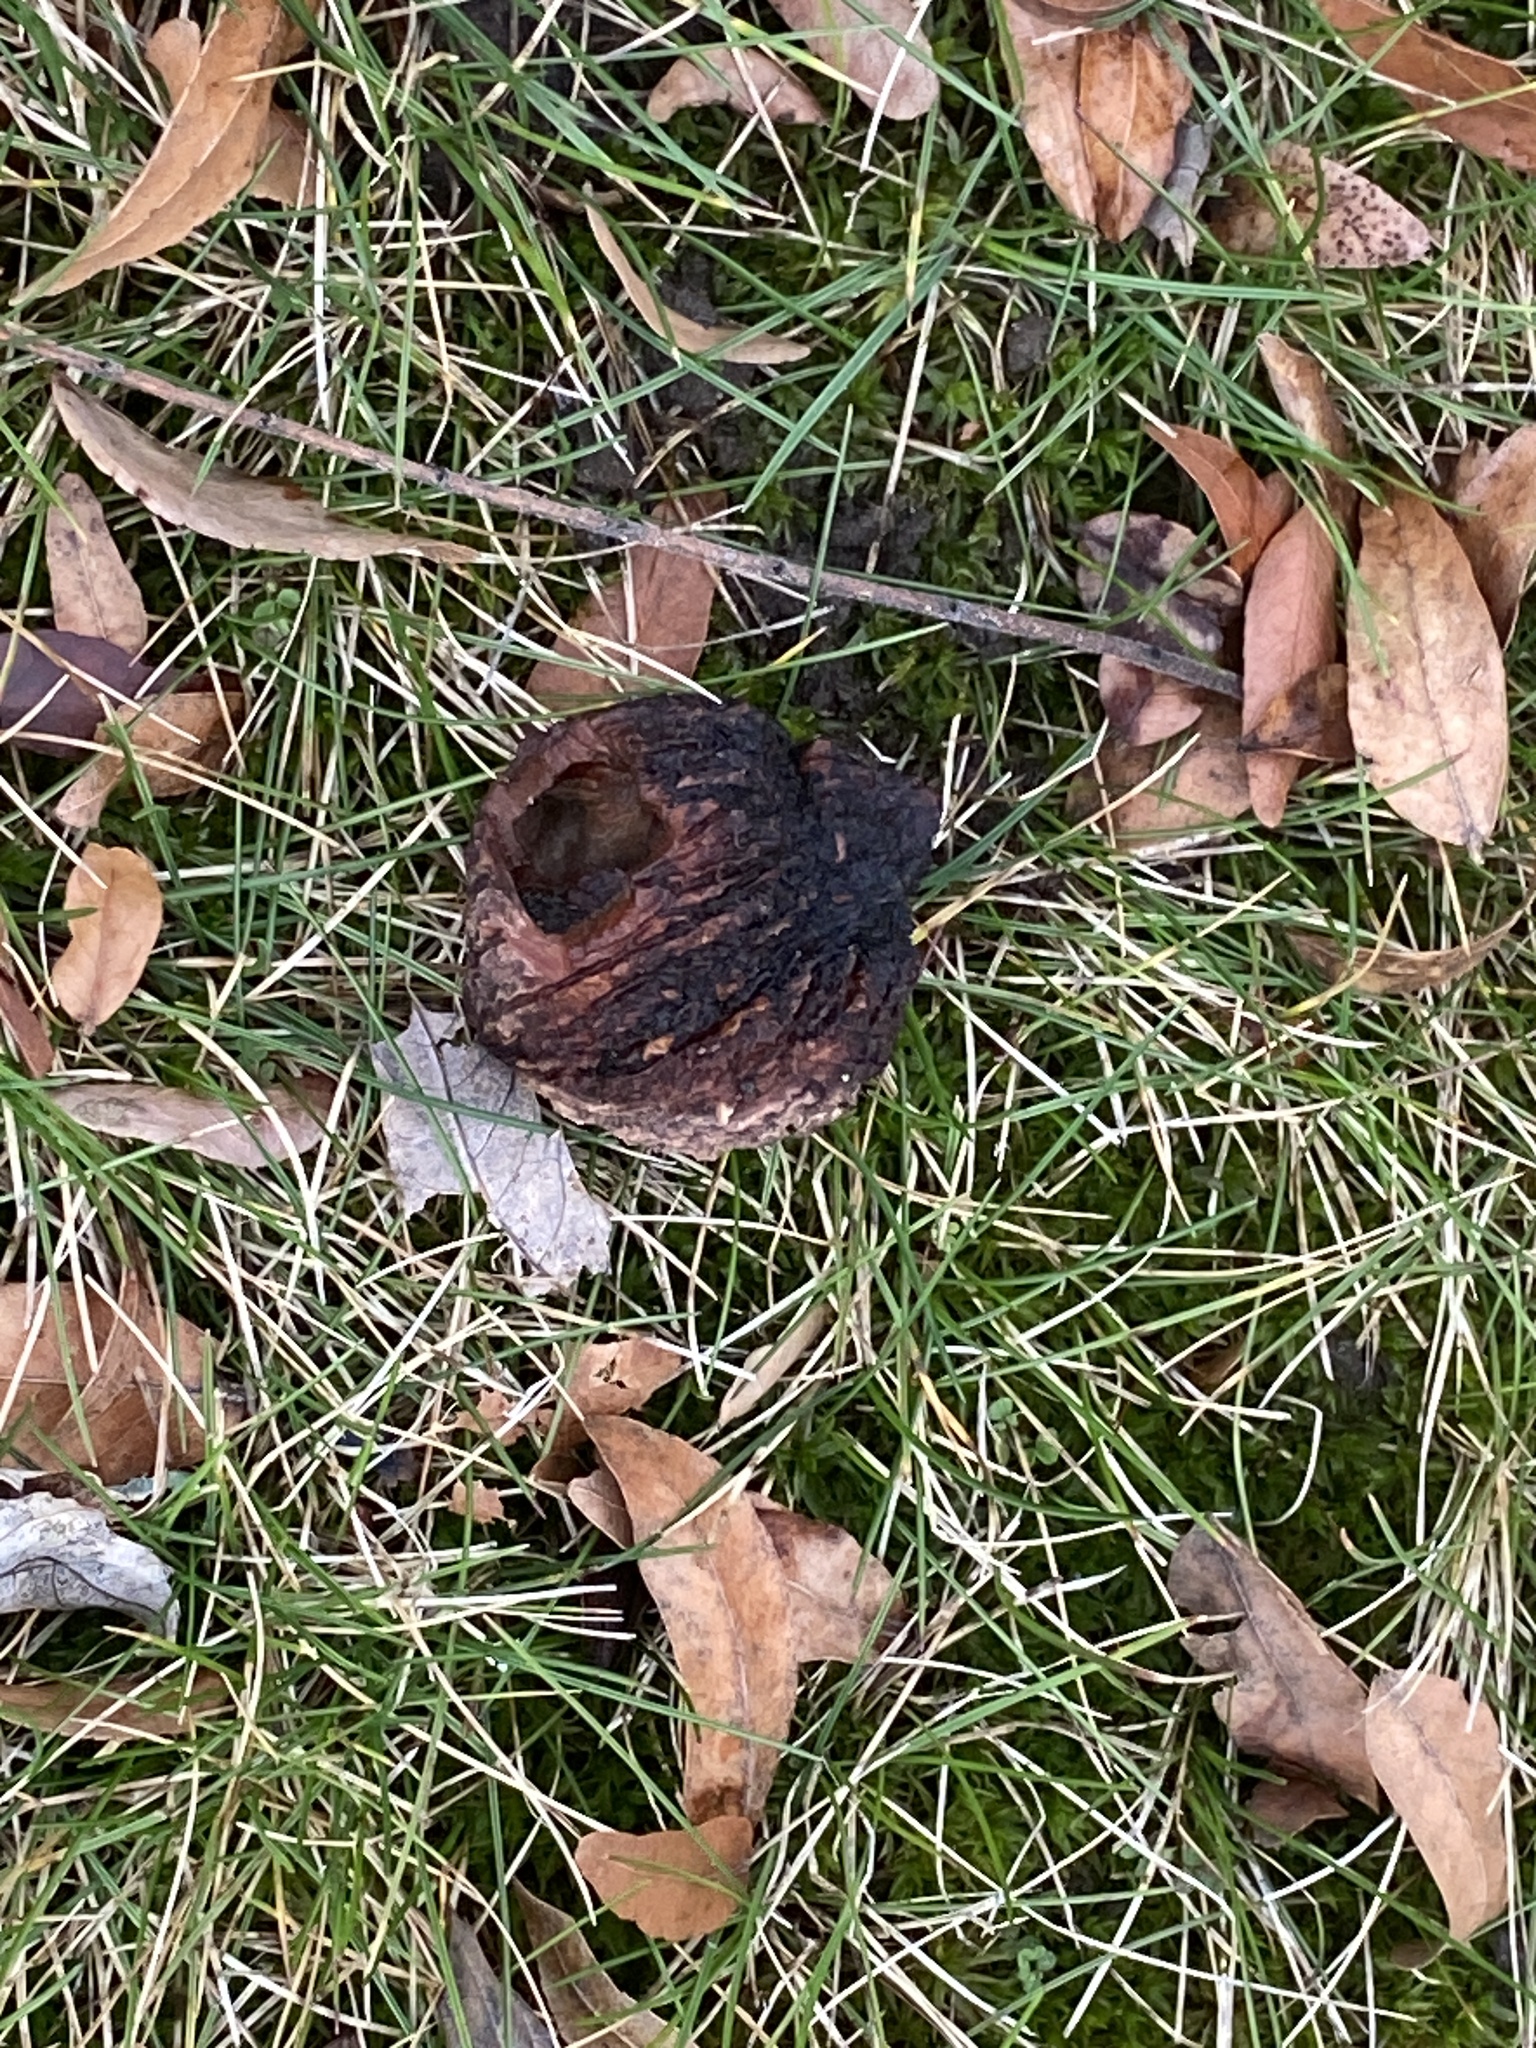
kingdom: Plantae
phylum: Tracheophyta
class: Magnoliopsida
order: Fagales
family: Juglandaceae
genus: Juglans
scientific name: Juglans nigra
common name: Black walnut
